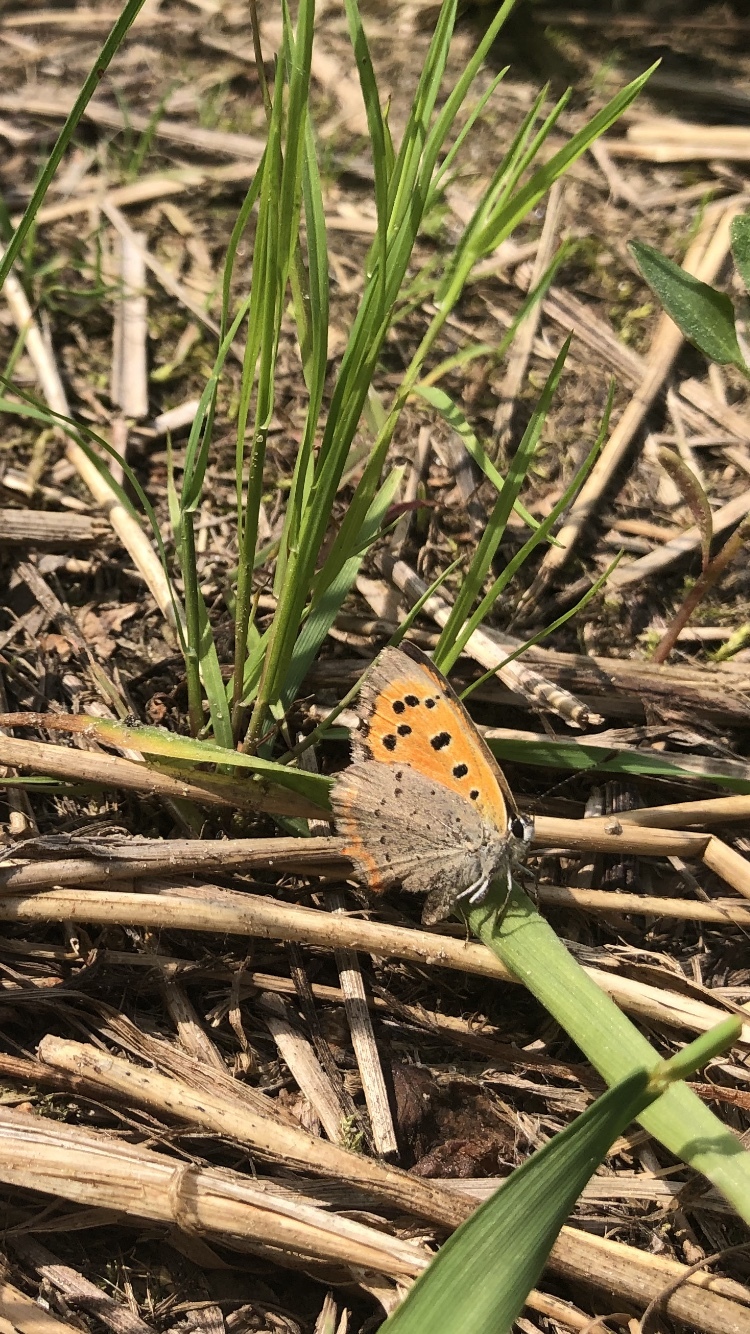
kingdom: Animalia
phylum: Arthropoda
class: Insecta
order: Lepidoptera
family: Lycaenidae
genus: Lycaena
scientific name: Lycaena phlaeas
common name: Small copper
